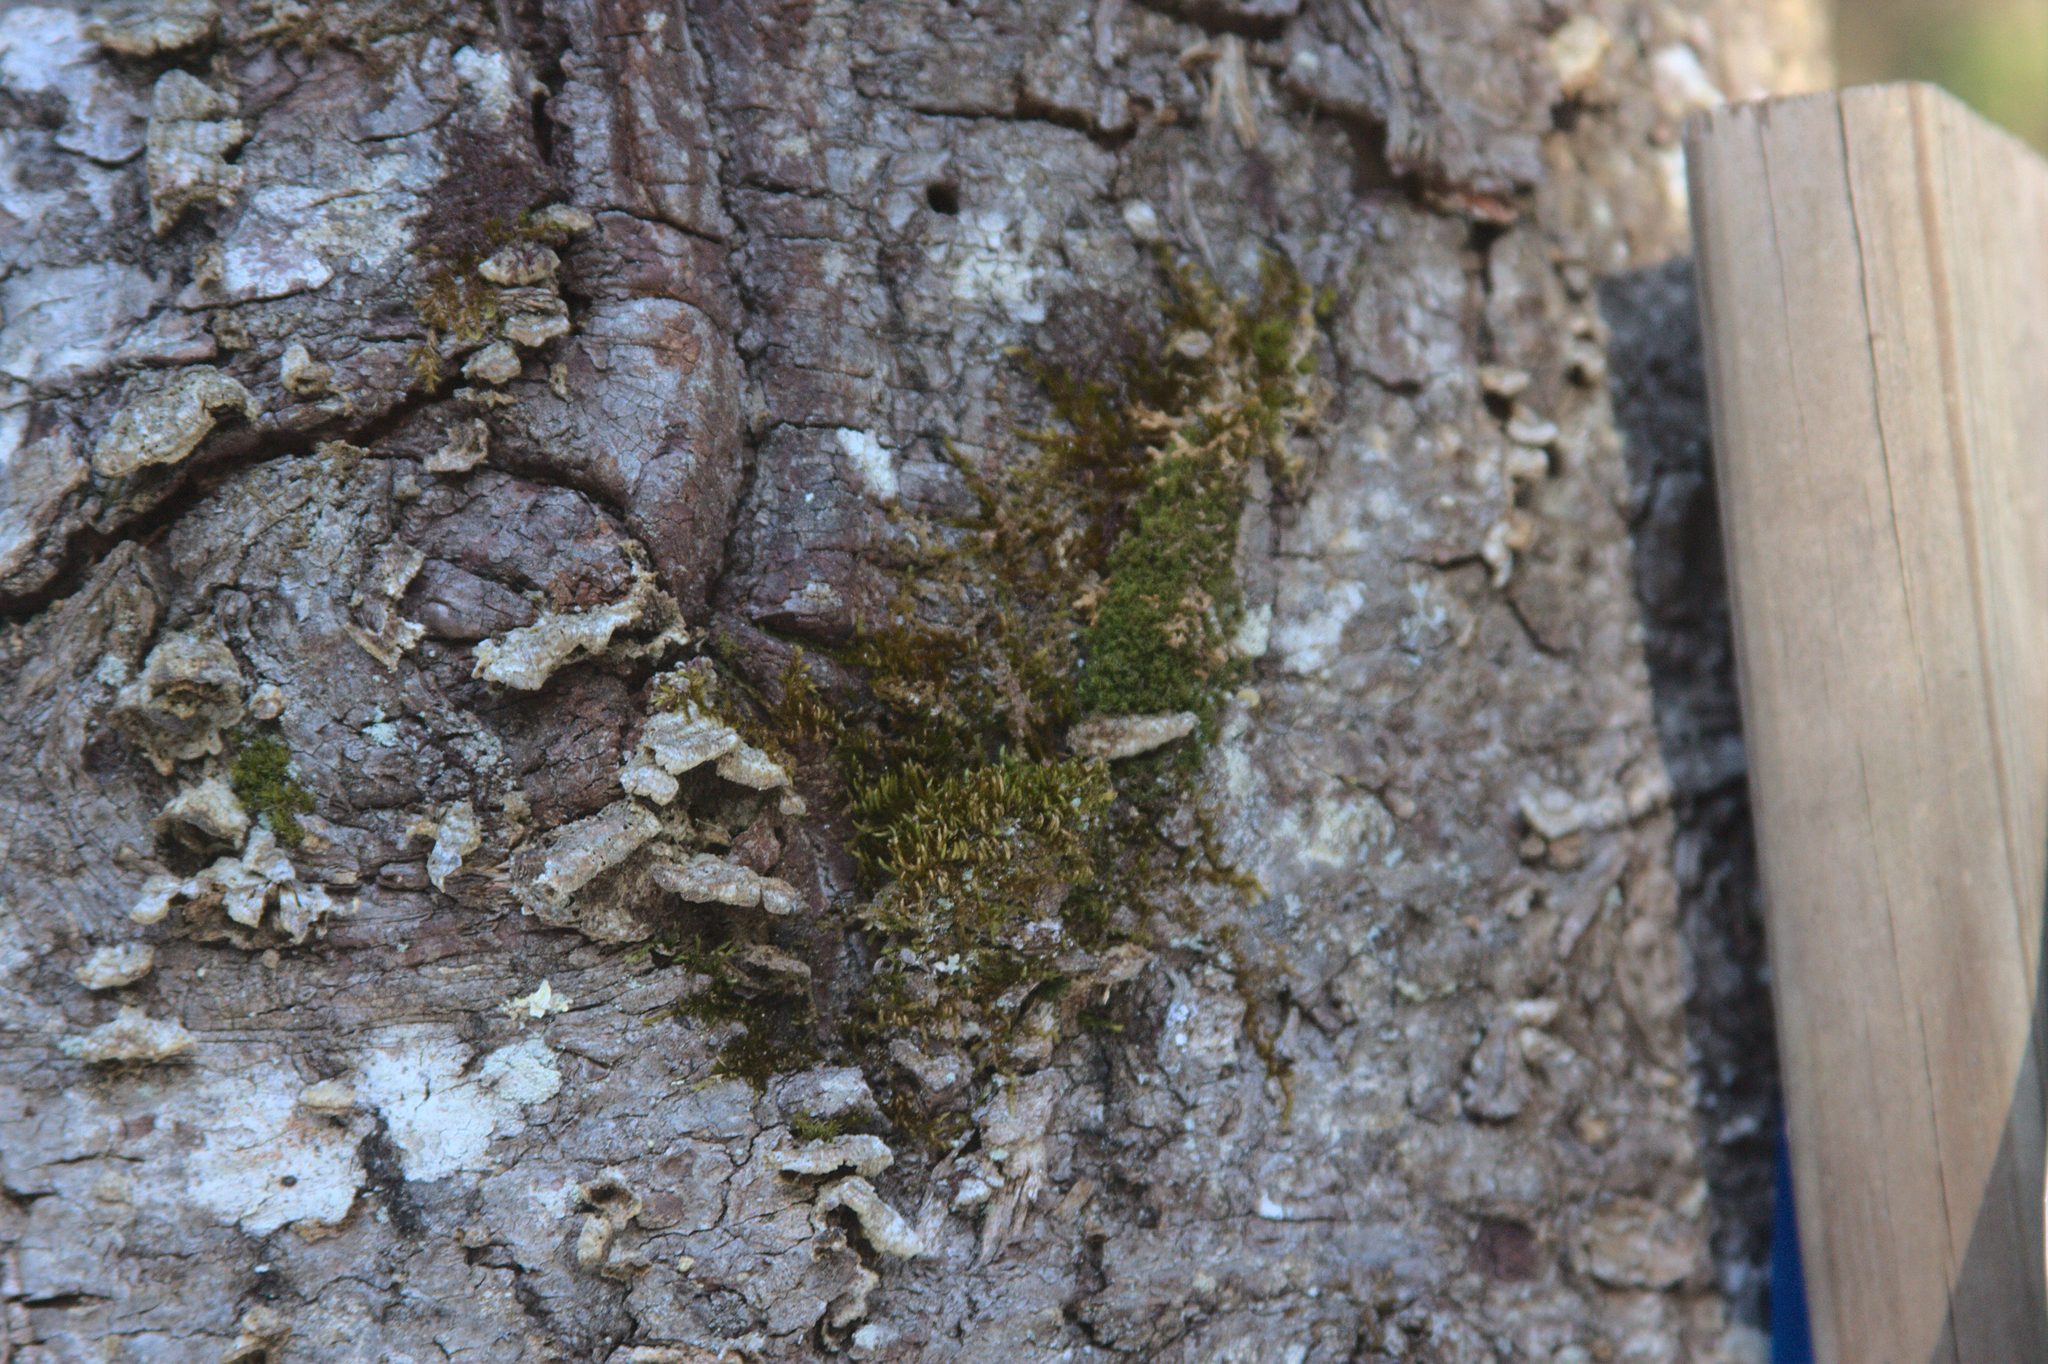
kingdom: Plantae
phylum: Bryophyta
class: Bryopsida
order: Orthotrichales
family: Orthotrichaceae
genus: Ulota
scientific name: Ulota crispa
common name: Crisped pincushion moss
